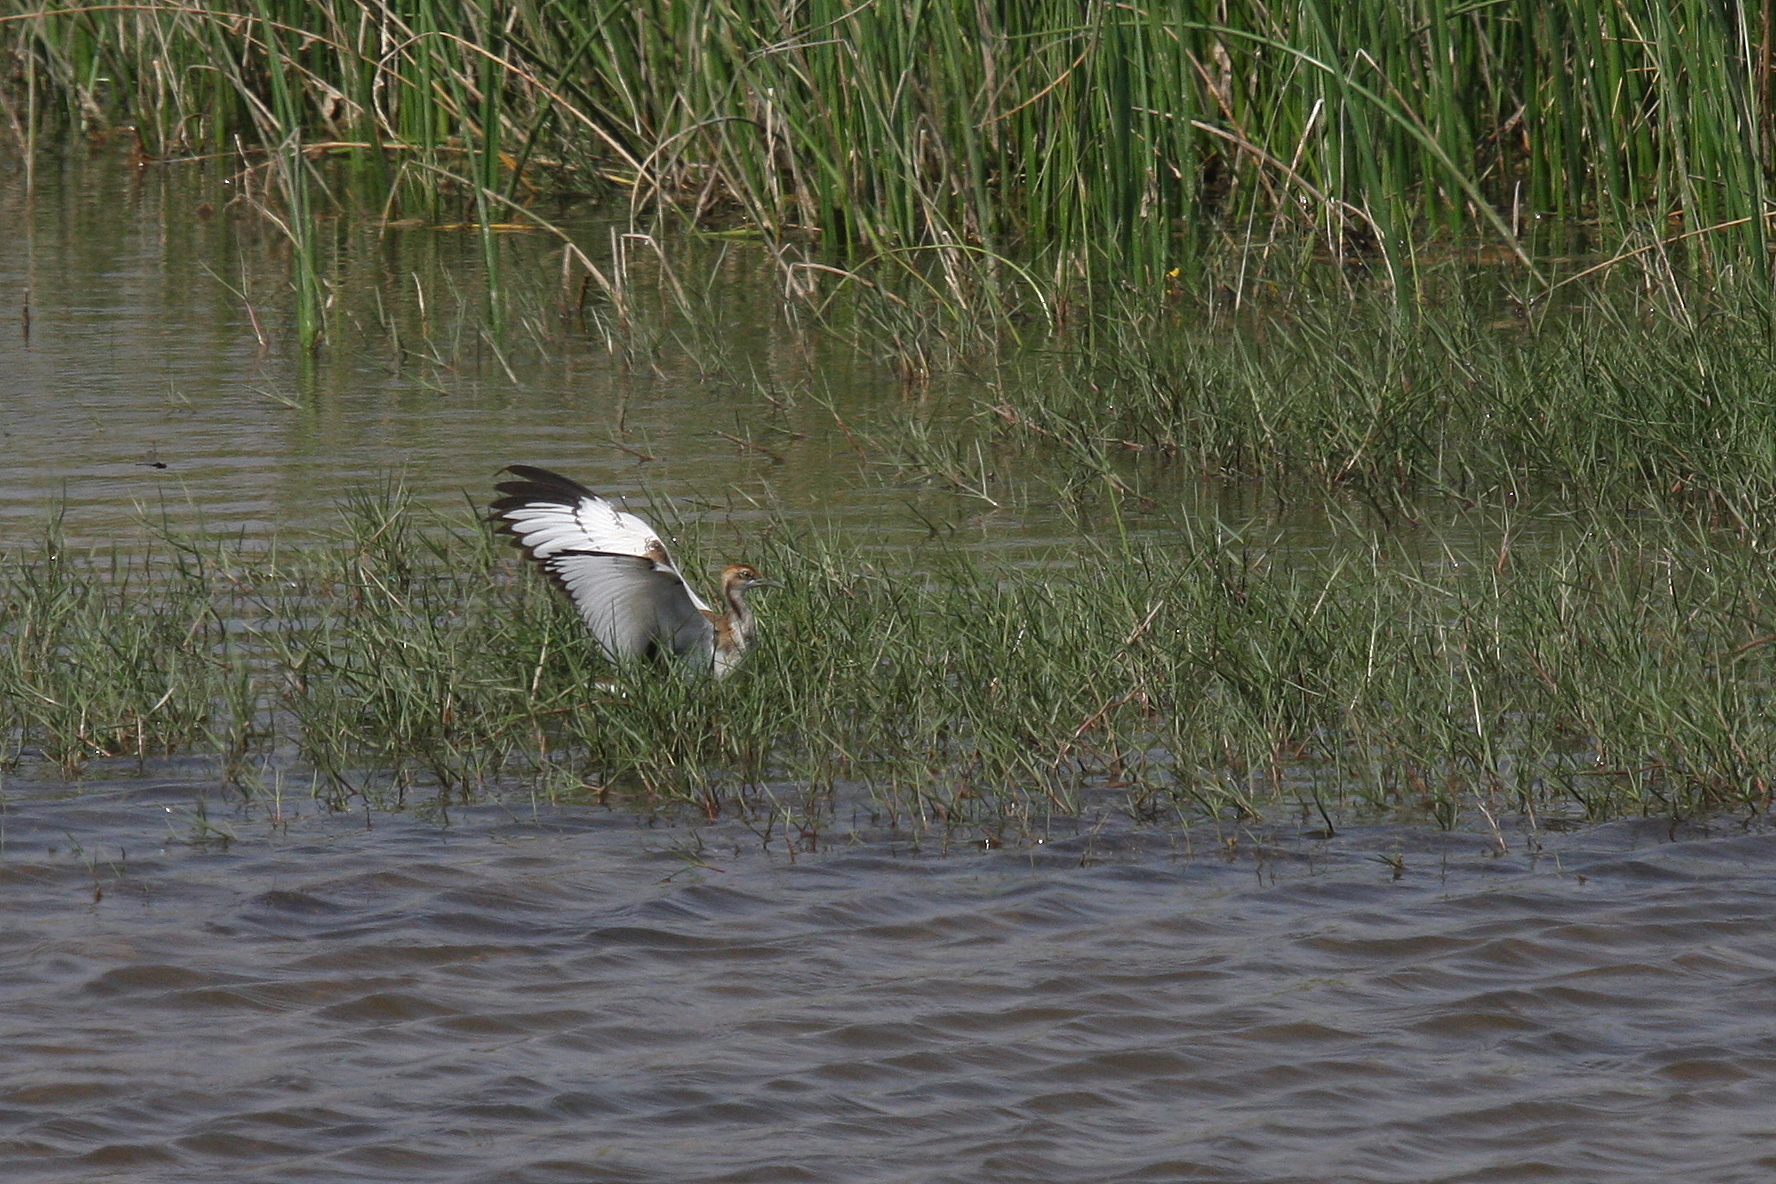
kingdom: Animalia
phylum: Chordata
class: Aves
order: Charadriiformes
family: Jacanidae
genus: Hydrophasianus
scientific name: Hydrophasianus chirurgus
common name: Pheasant-tailed jacana
